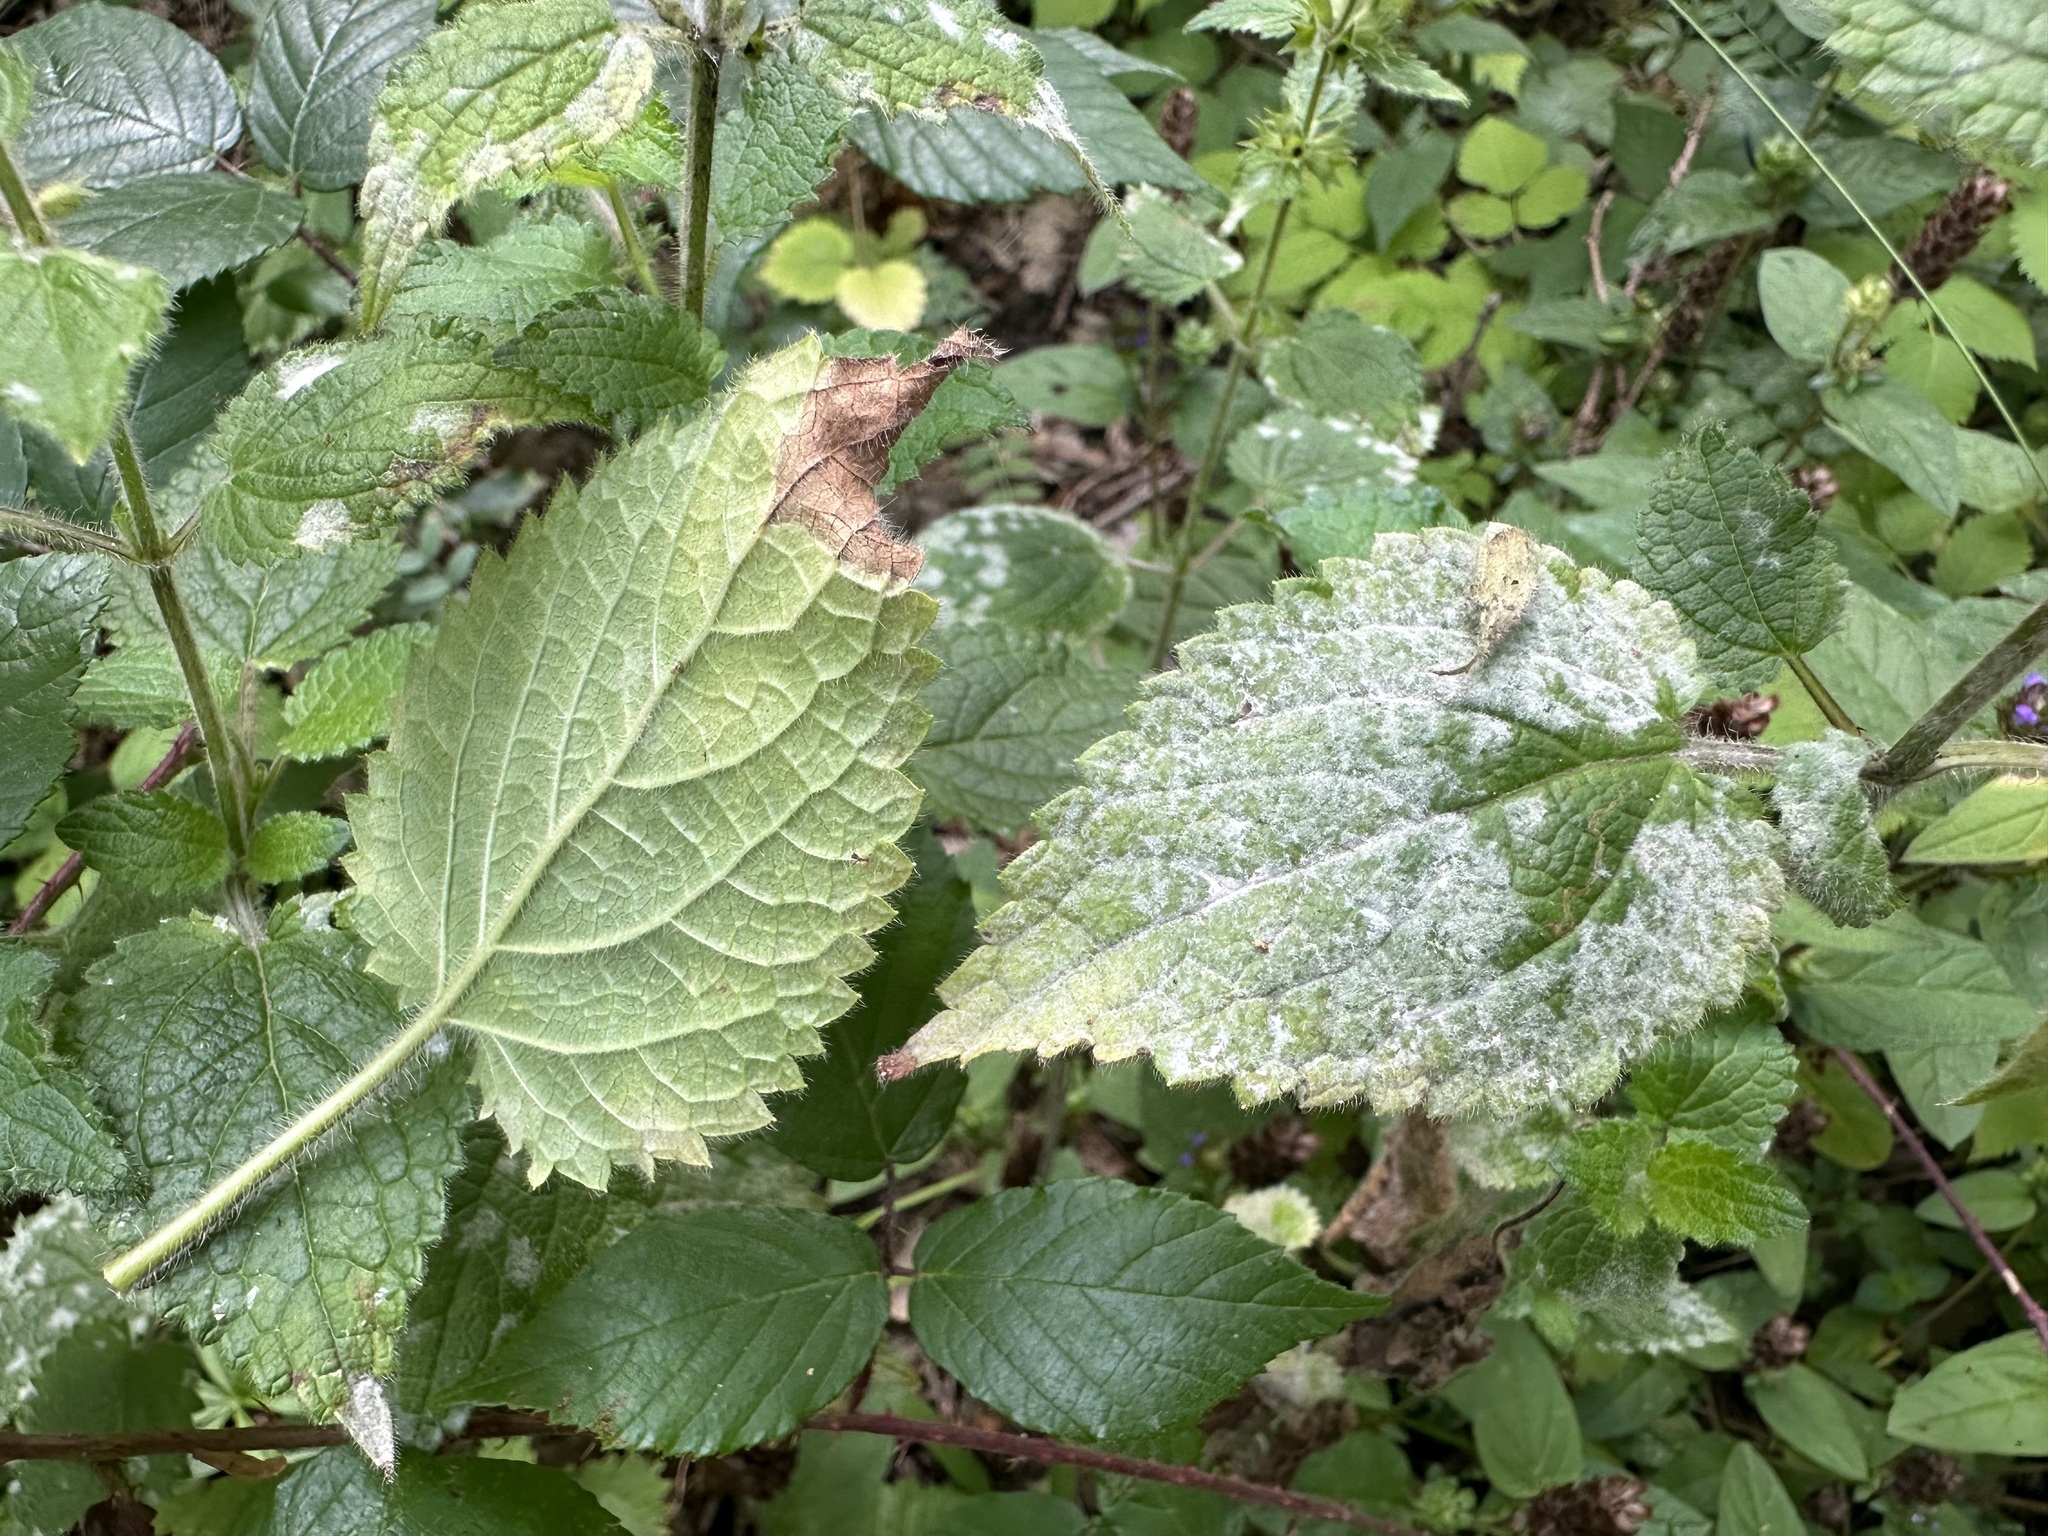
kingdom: Fungi
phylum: Ascomycota
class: Leotiomycetes
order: Helotiales
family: Erysiphaceae
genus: Neoerysiphe
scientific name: Neoerysiphe galeopsidis
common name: Mint mildew
